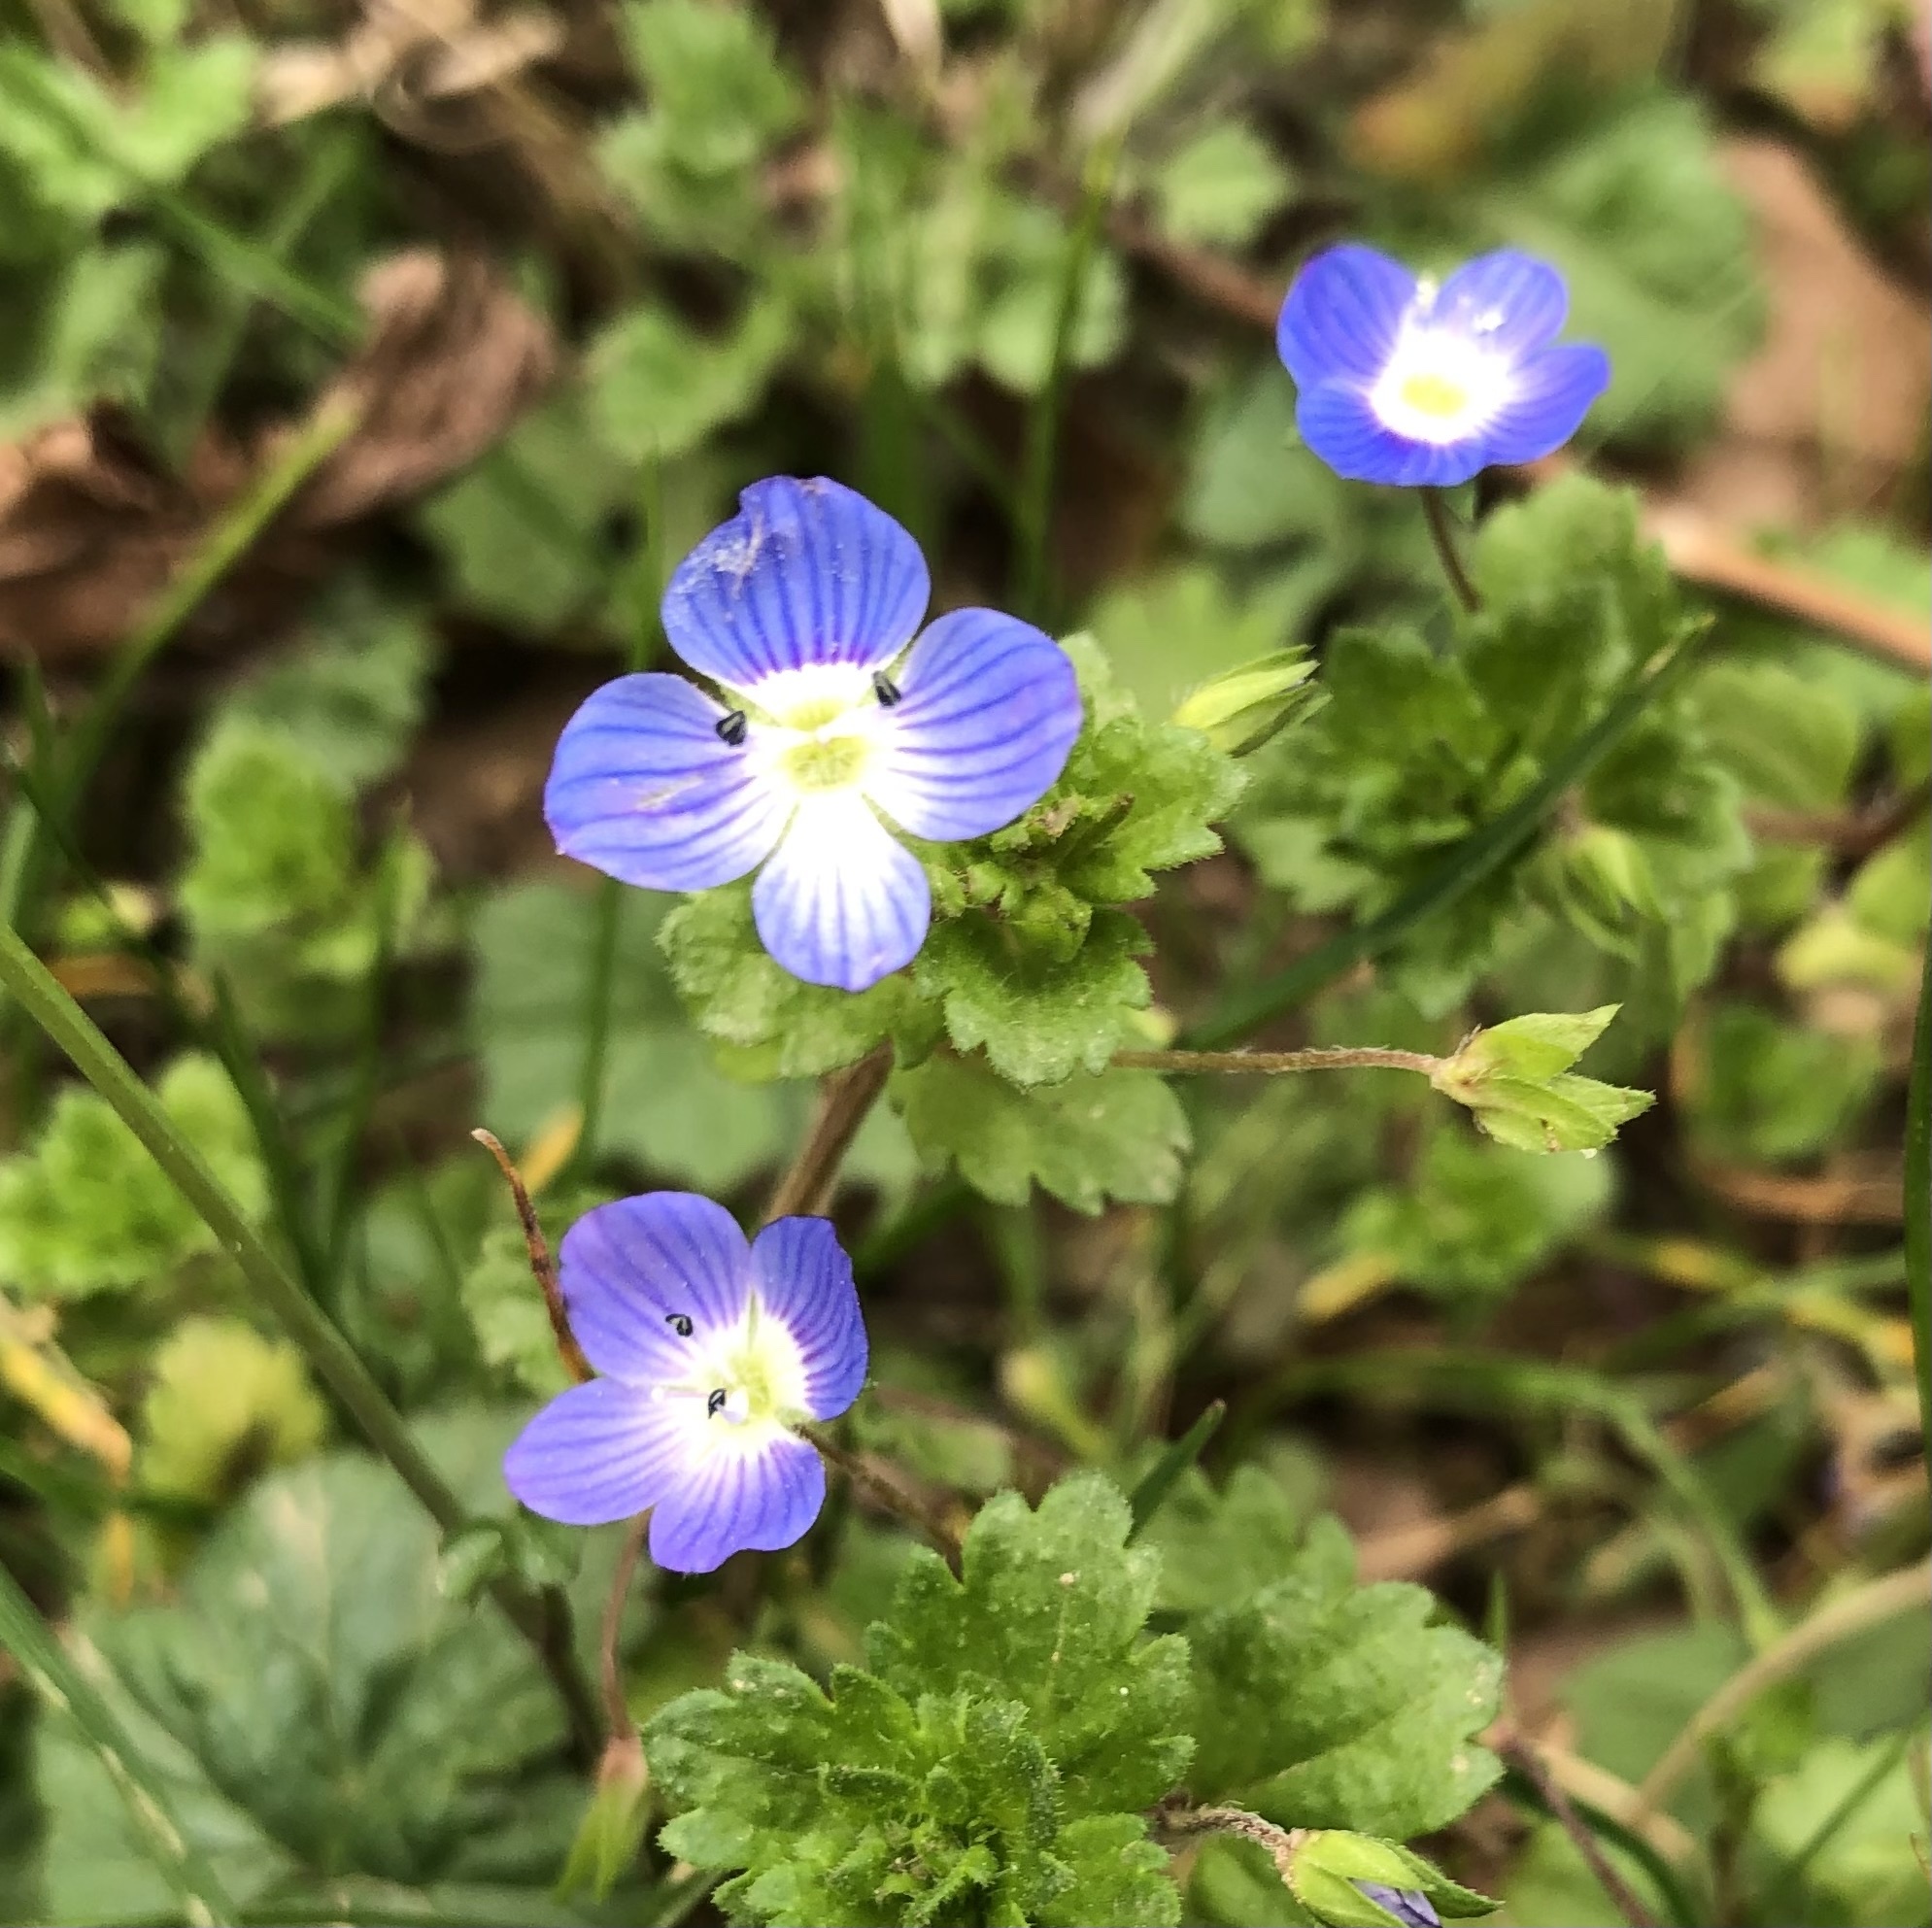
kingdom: Plantae
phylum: Tracheophyta
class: Magnoliopsida
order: Lamiales
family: Plantaginaceae
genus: Veronica
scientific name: Veronica persica
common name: Common field-speedwell
